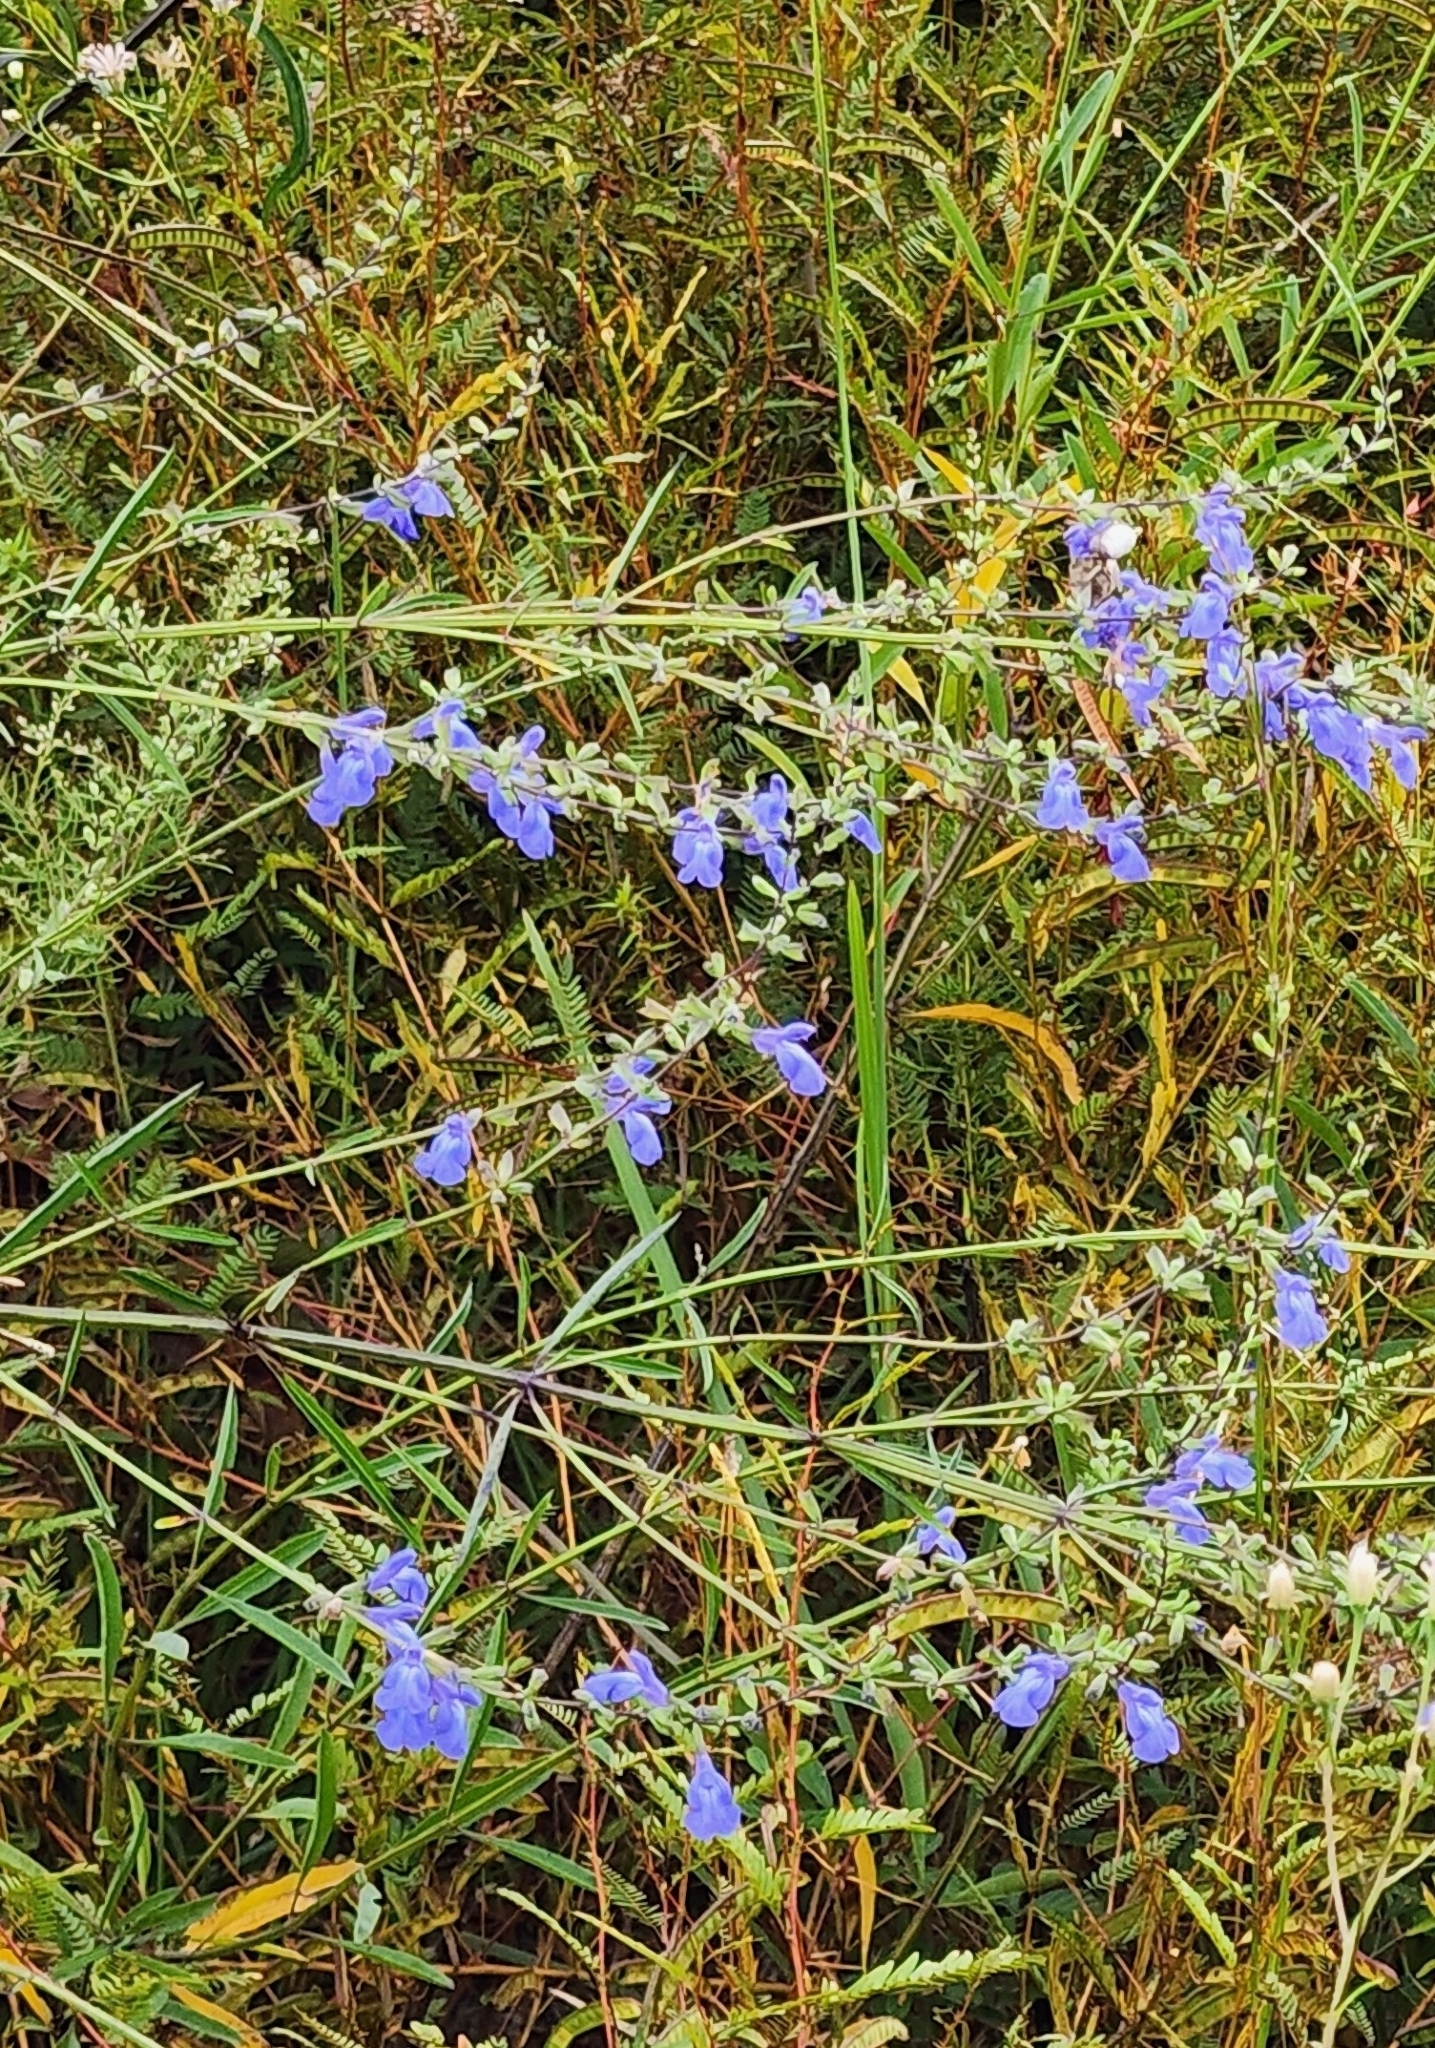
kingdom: Plantae
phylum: Tracheophyta
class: Magnoliopsida
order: Lamiales
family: Lamiaceae
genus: Salvia
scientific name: Salvia azurea
